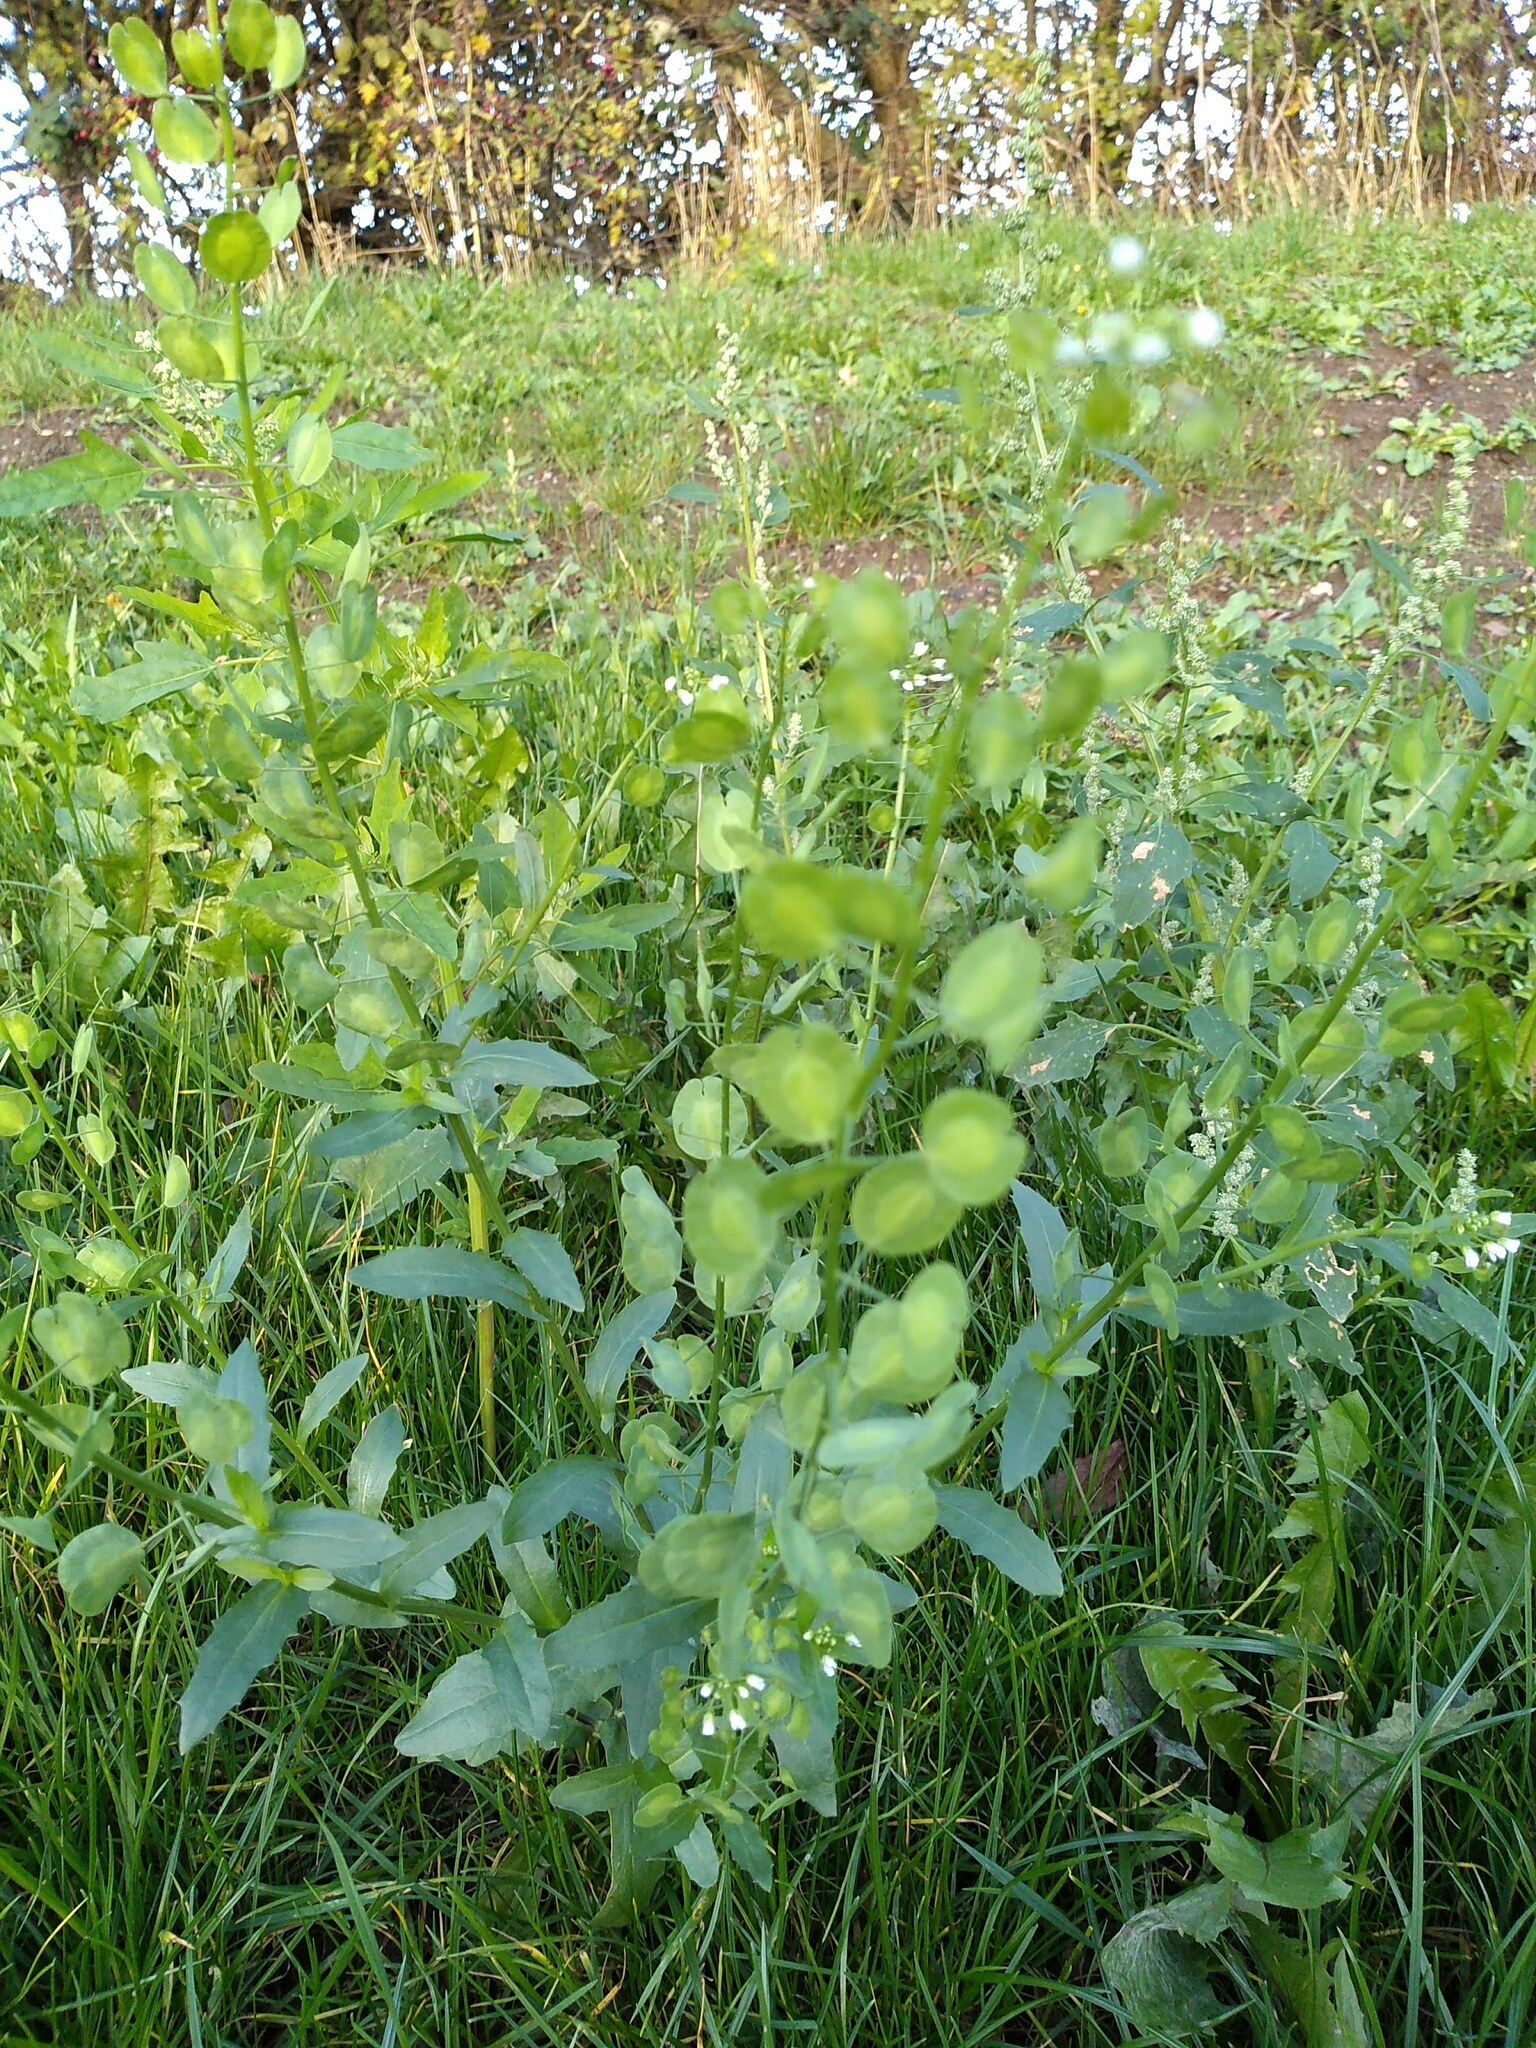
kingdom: Plantae
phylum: Tracheophyta
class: Magnoliopsida
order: Brassicales
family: Brassicaceae
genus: Thlaspi
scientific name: Thlaspi arvense
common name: Field pennycress
